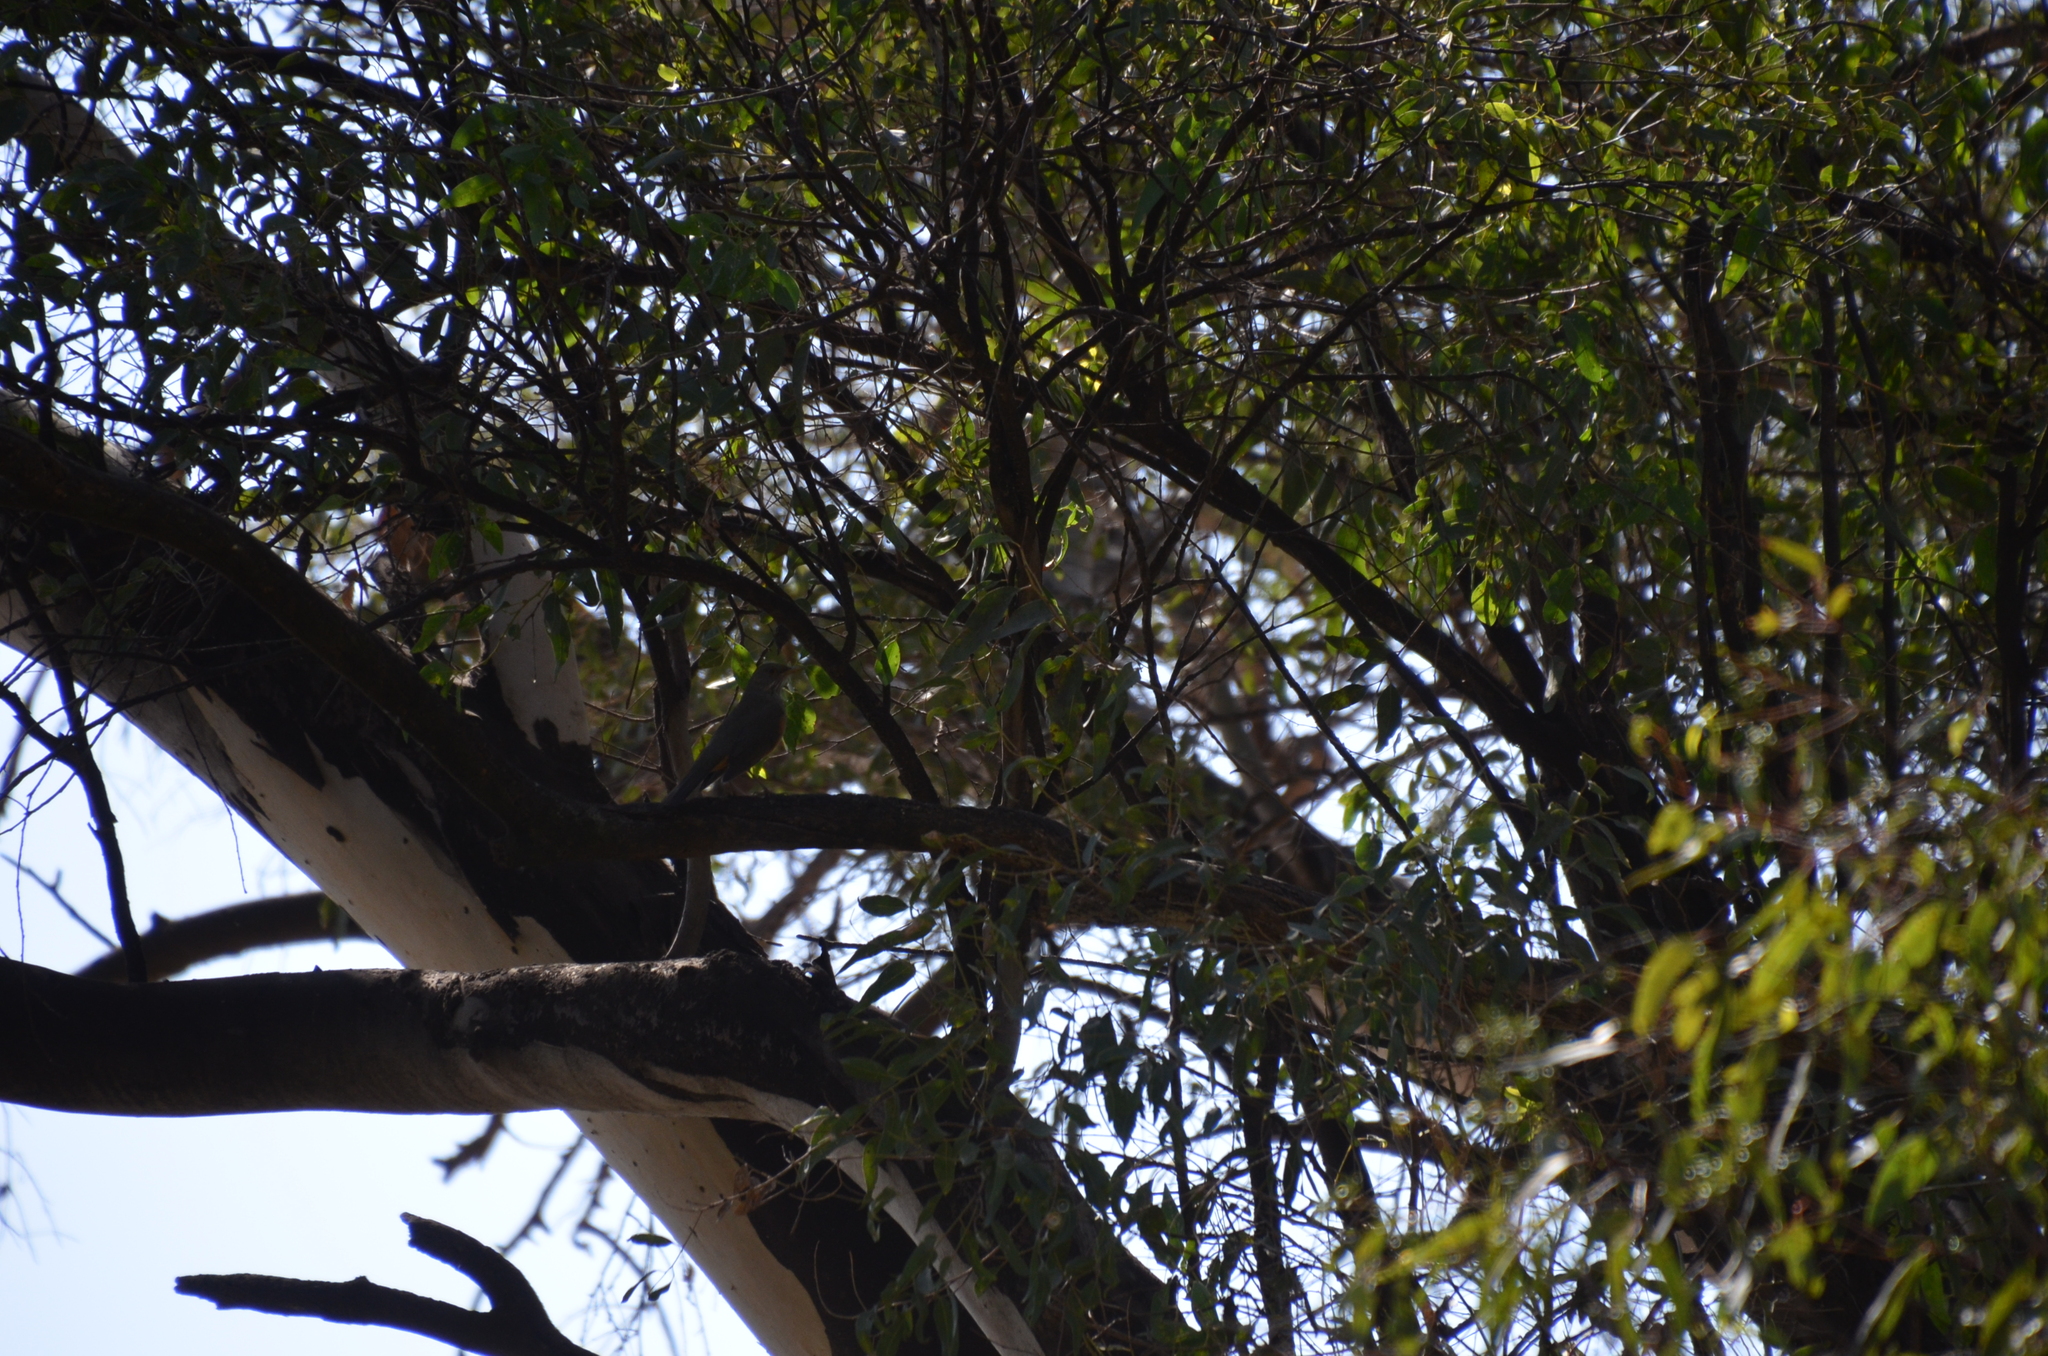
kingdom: Animalia
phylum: Chordata
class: Aves
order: Passeriformes
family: Turdidae
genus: Turdus
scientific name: Turdus rufiventris
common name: Rufous-bellied thrush
